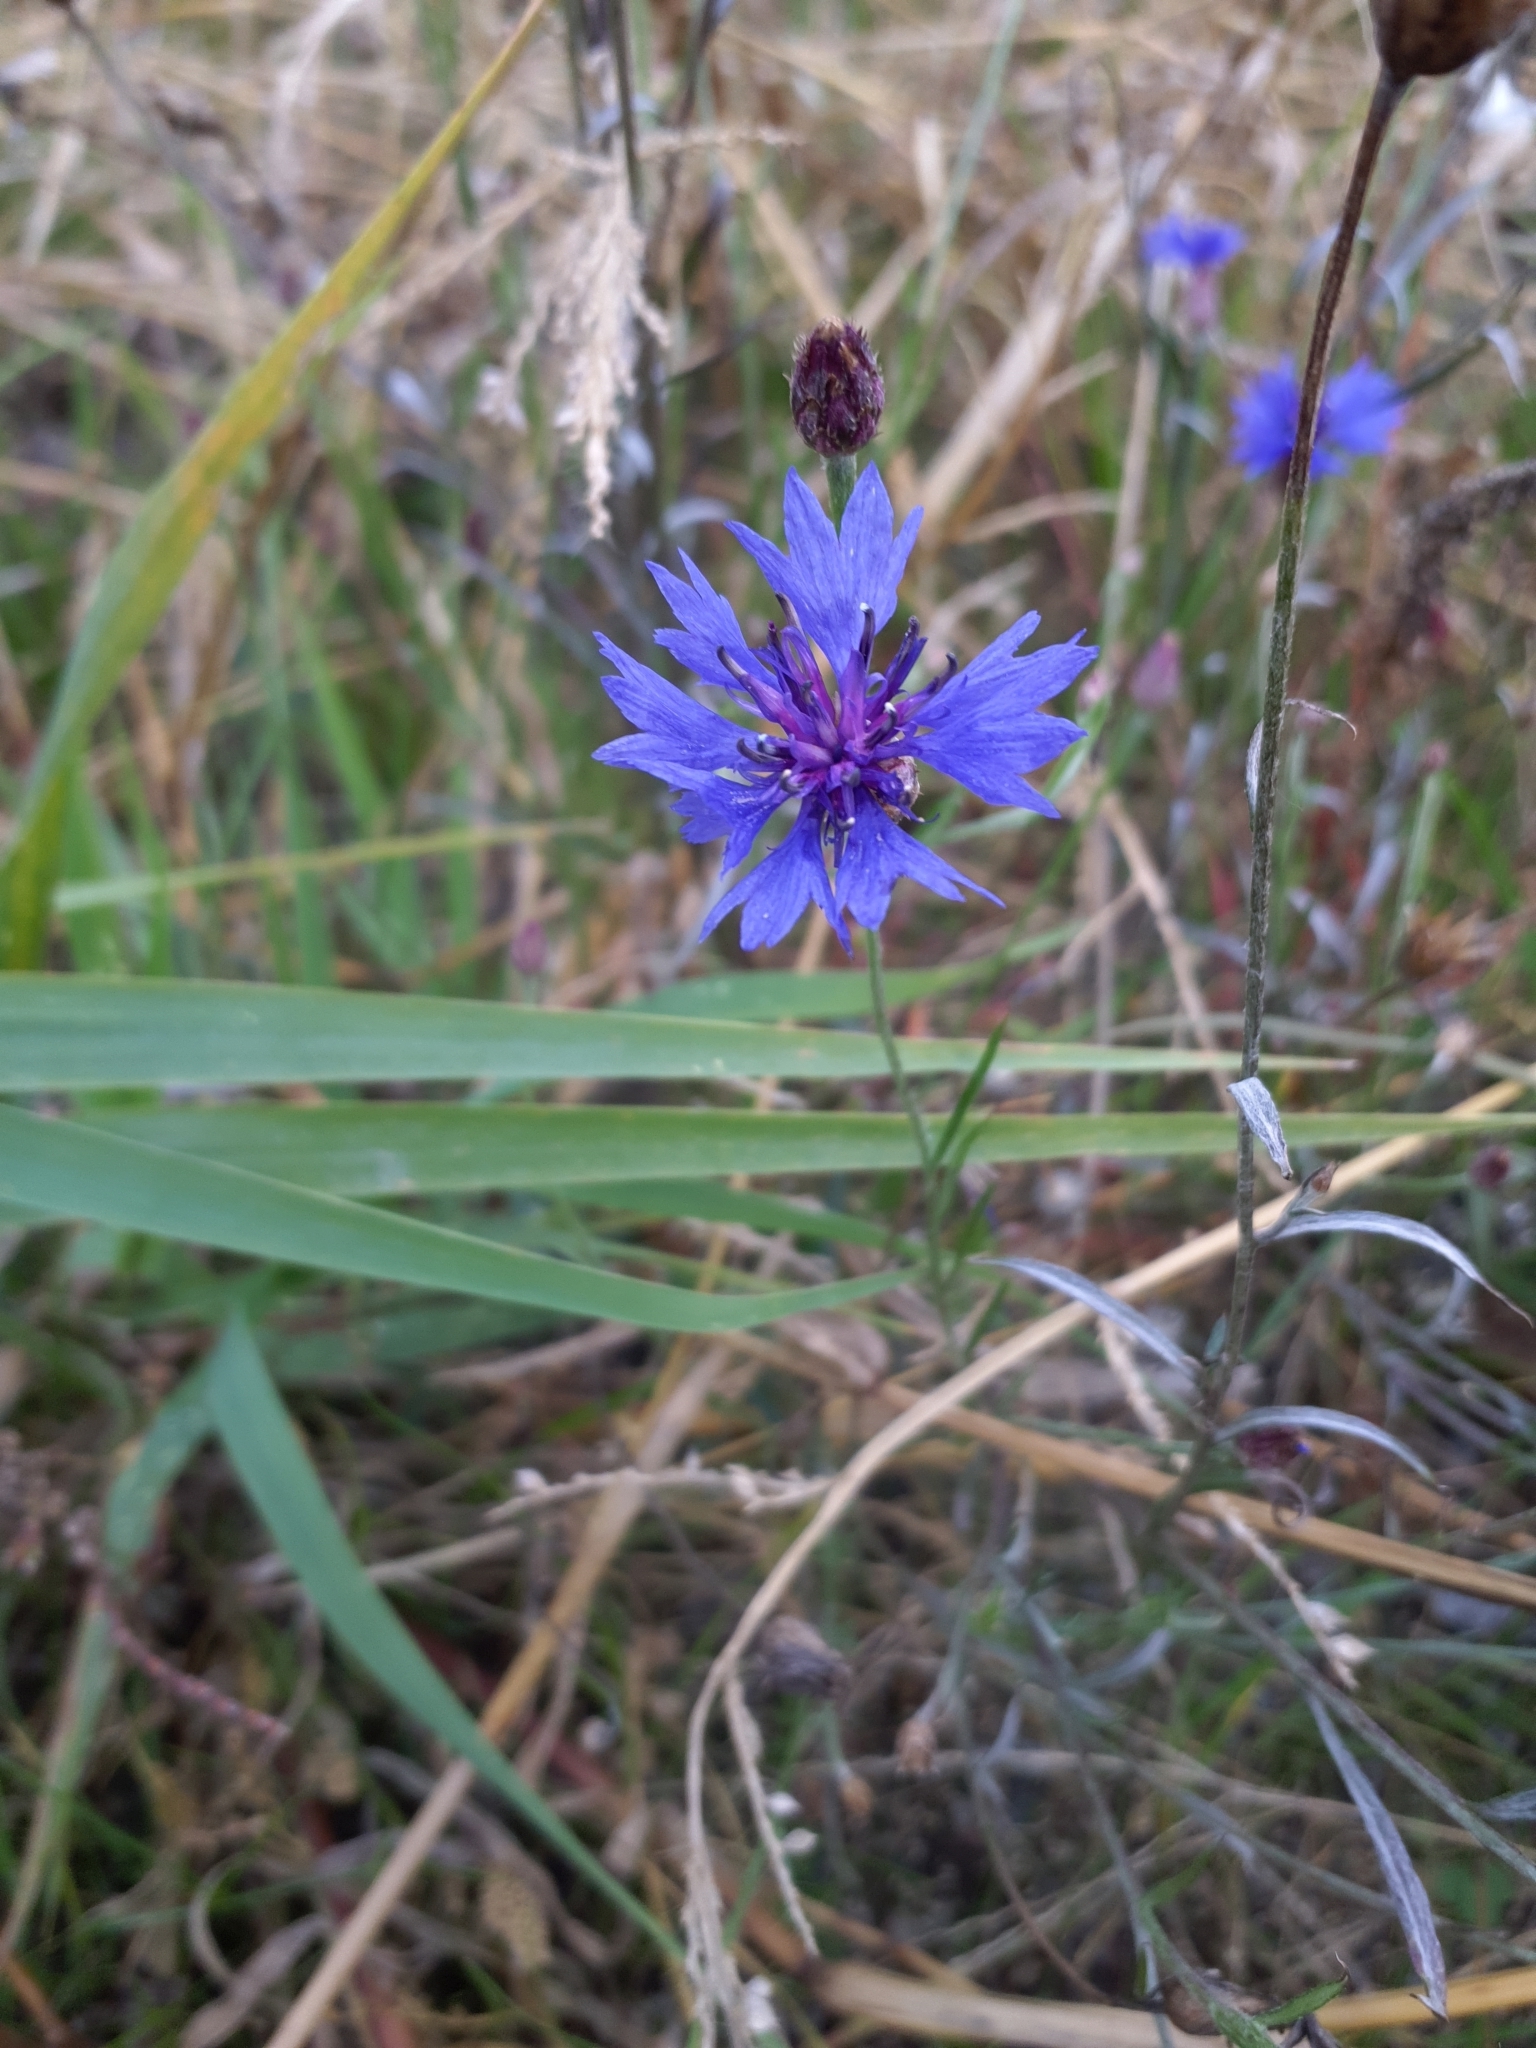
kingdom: Plantae
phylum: Tracheophyta
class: Magnoliopsida
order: Asterales
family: Asteraceae
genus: Centaurea
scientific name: Centaurea cyanus
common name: Cornflower
